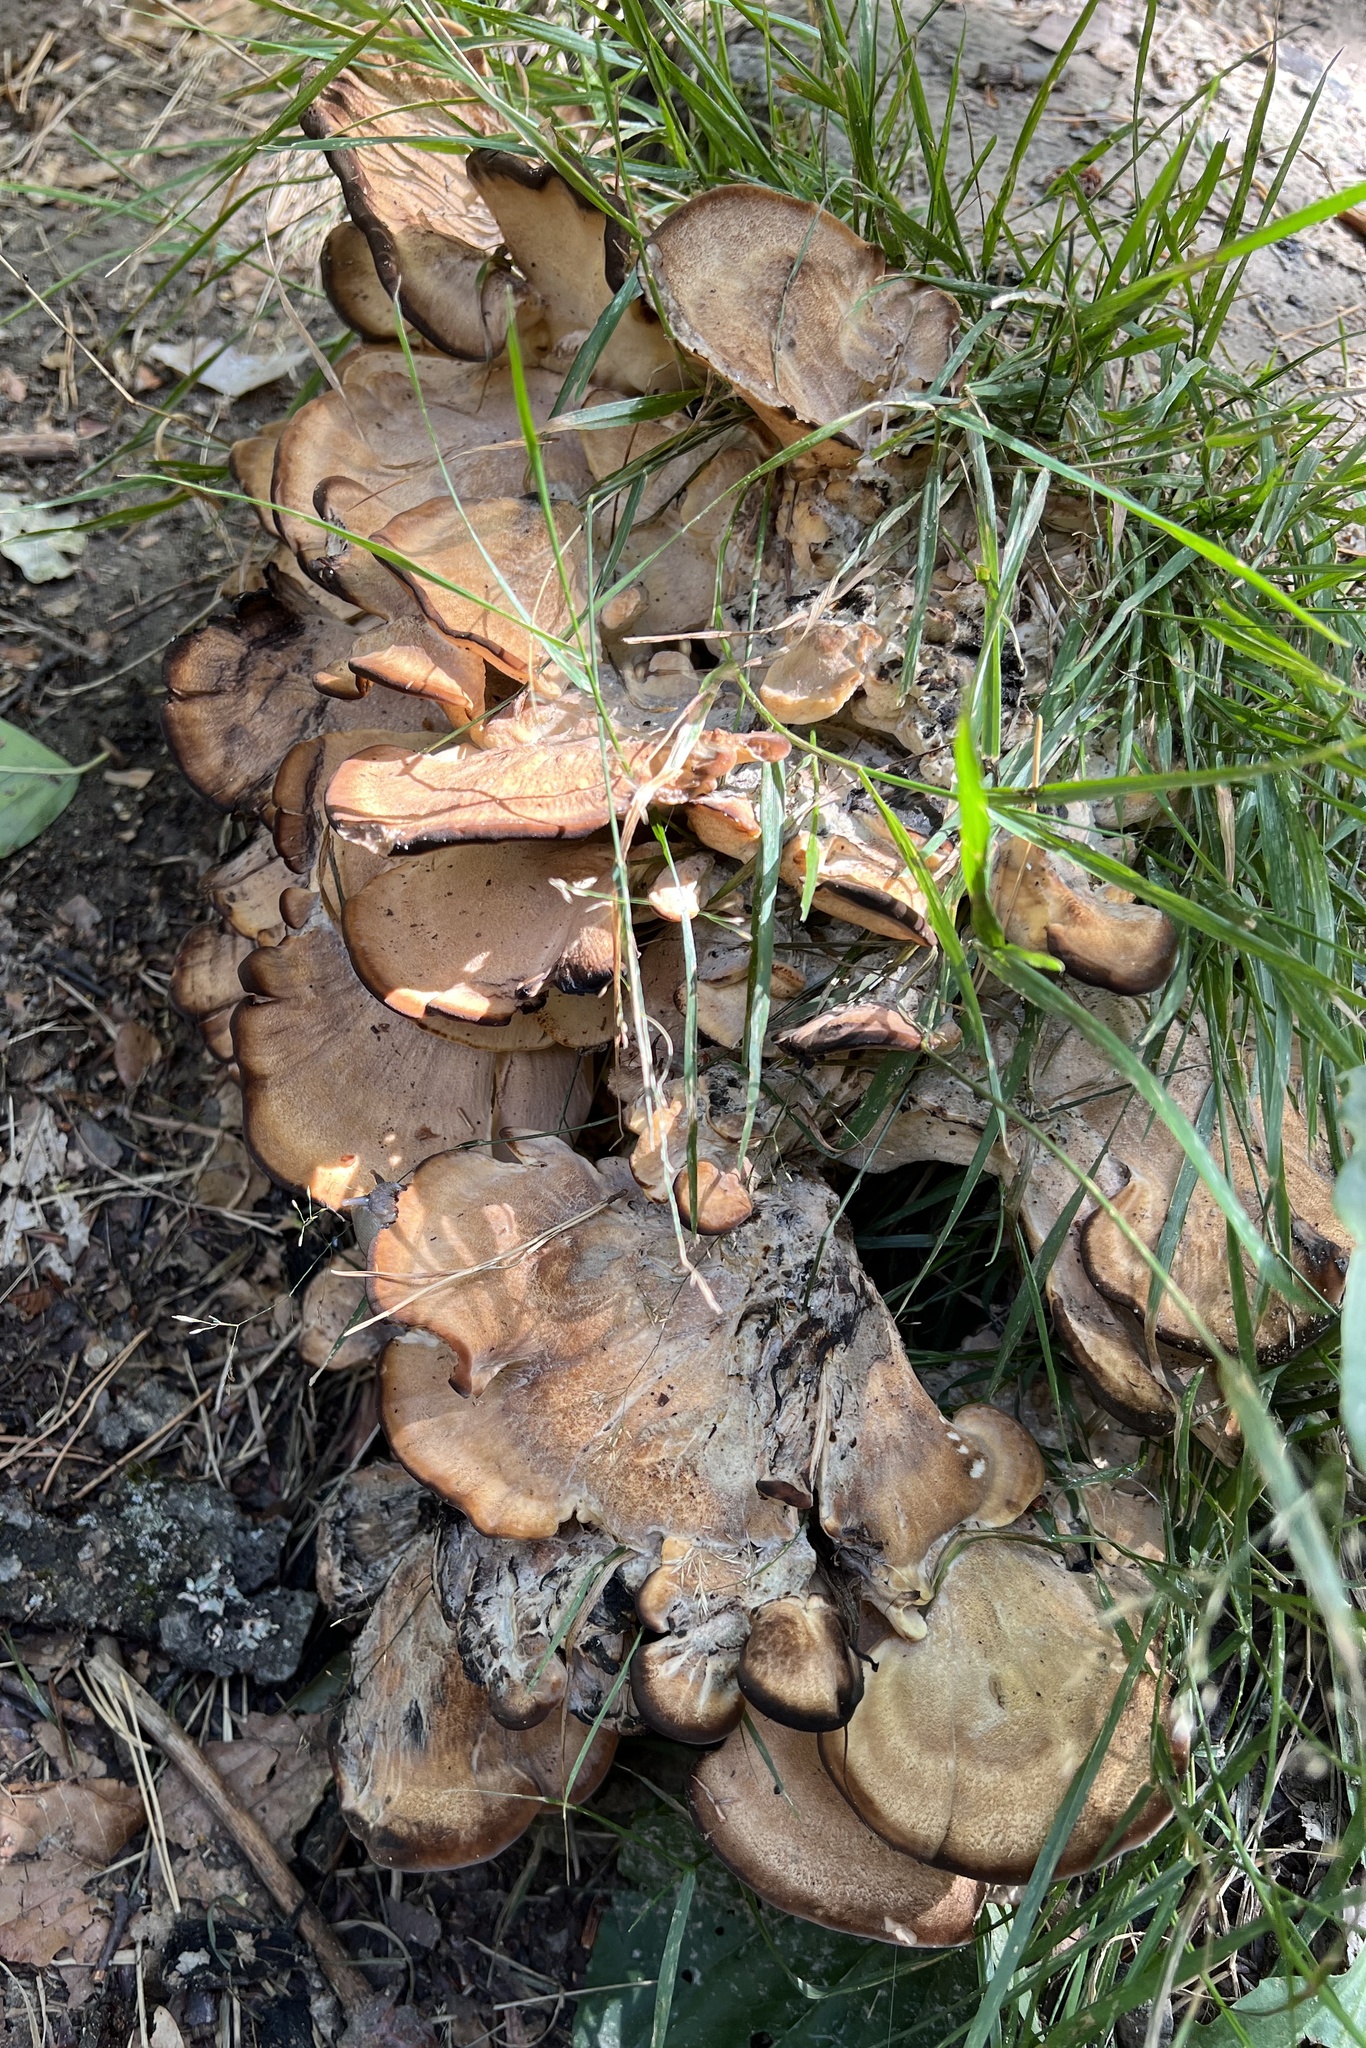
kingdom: Fungi
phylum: Basidiomycota
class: Agaricomycetes
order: Polyporales
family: Meripilaceae
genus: Meripilus
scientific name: Meripilus giganteus
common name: Giant polypore
